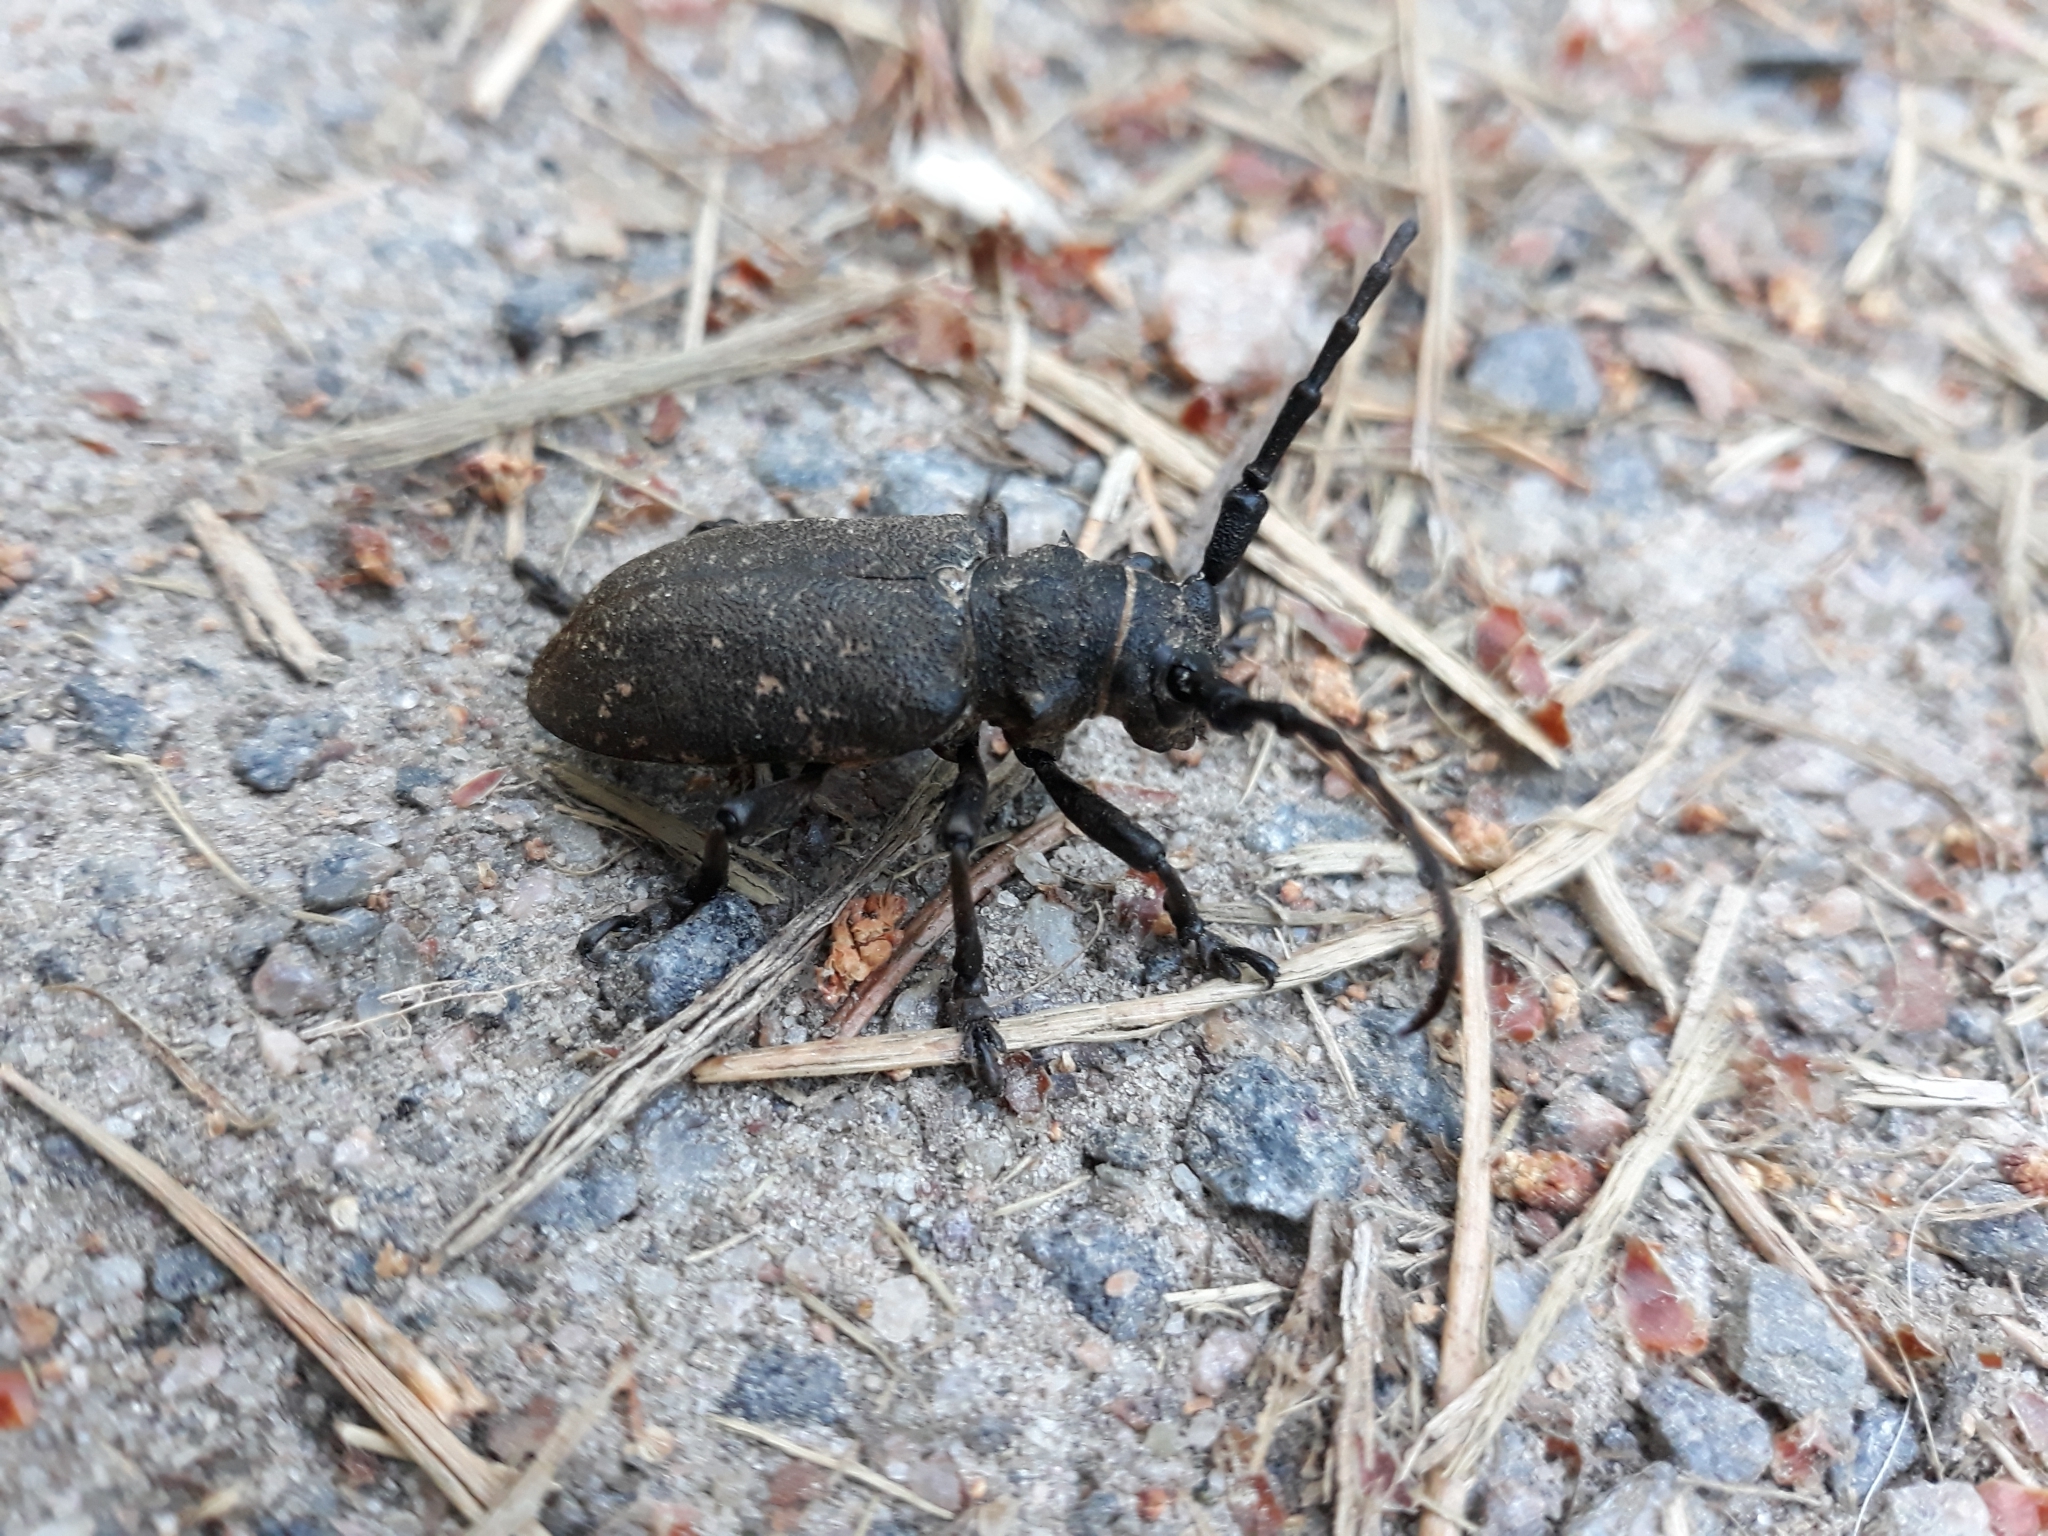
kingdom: Animalia
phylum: Arthropoda
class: Insecta
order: Coleoptera
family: Cerambycidae
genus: Lamia
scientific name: Lamia textor
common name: Weaver beetle
